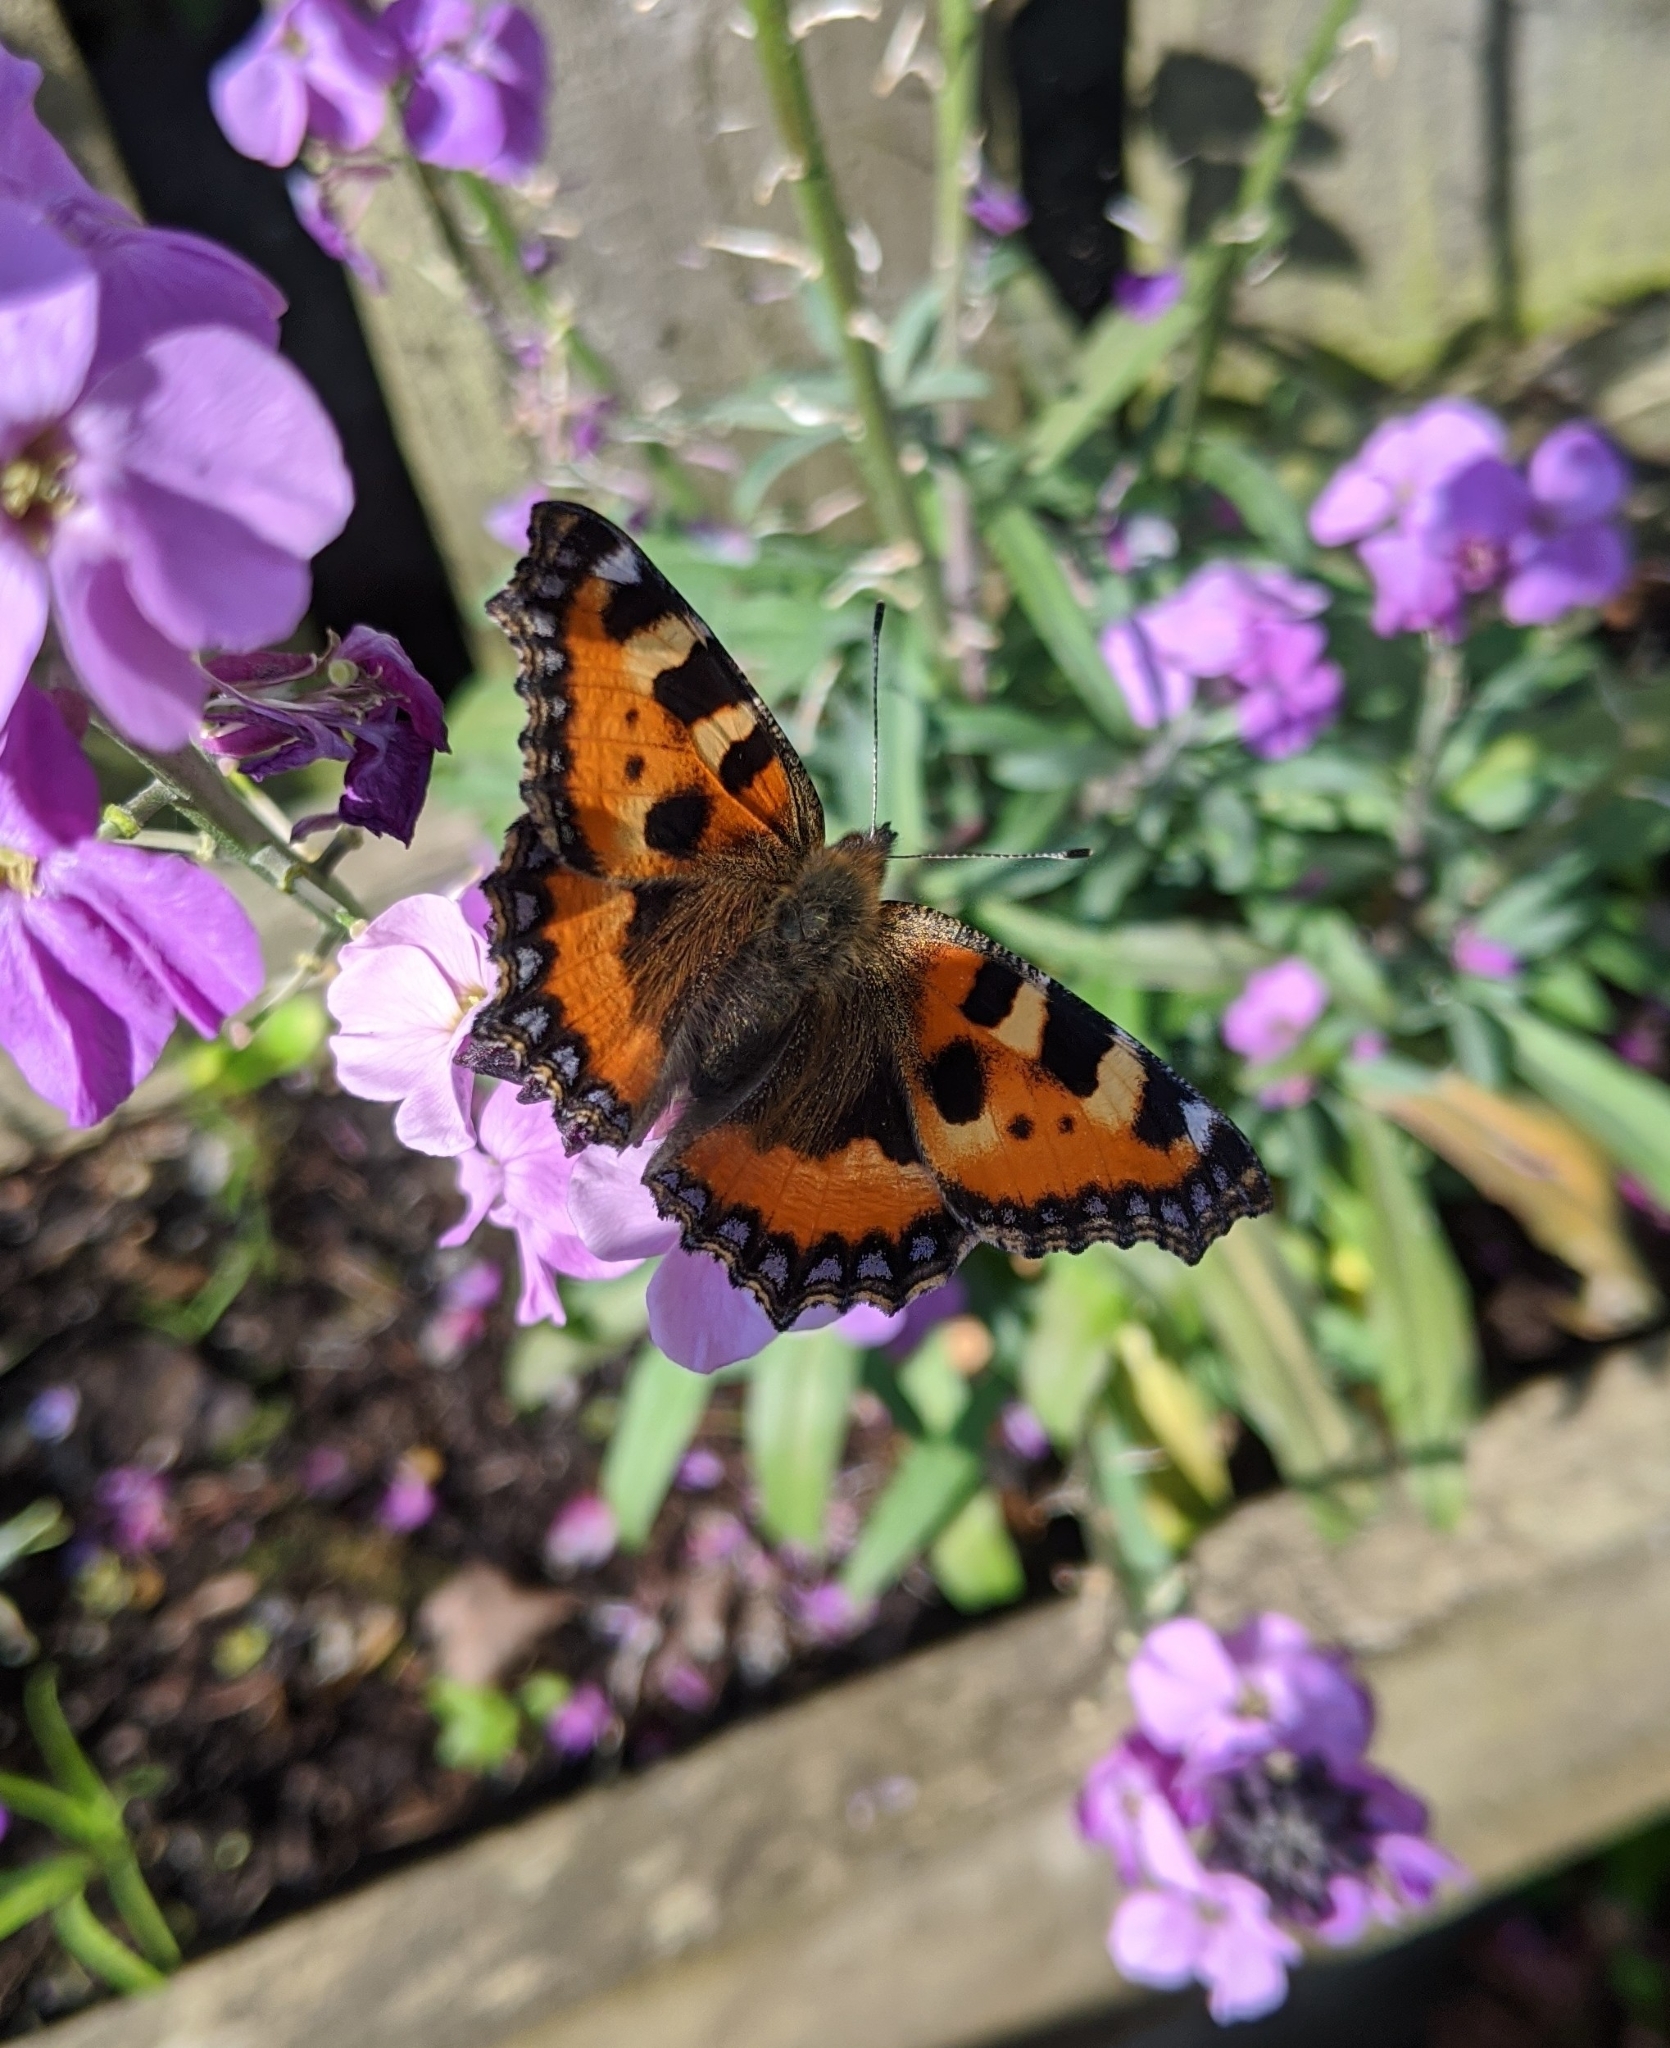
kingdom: Animalia
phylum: Arthropoda
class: Insecta
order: Lepidoptera
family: Nymphalidae
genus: Aglais
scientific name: Aglais urticae
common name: Small tortoiseshell
